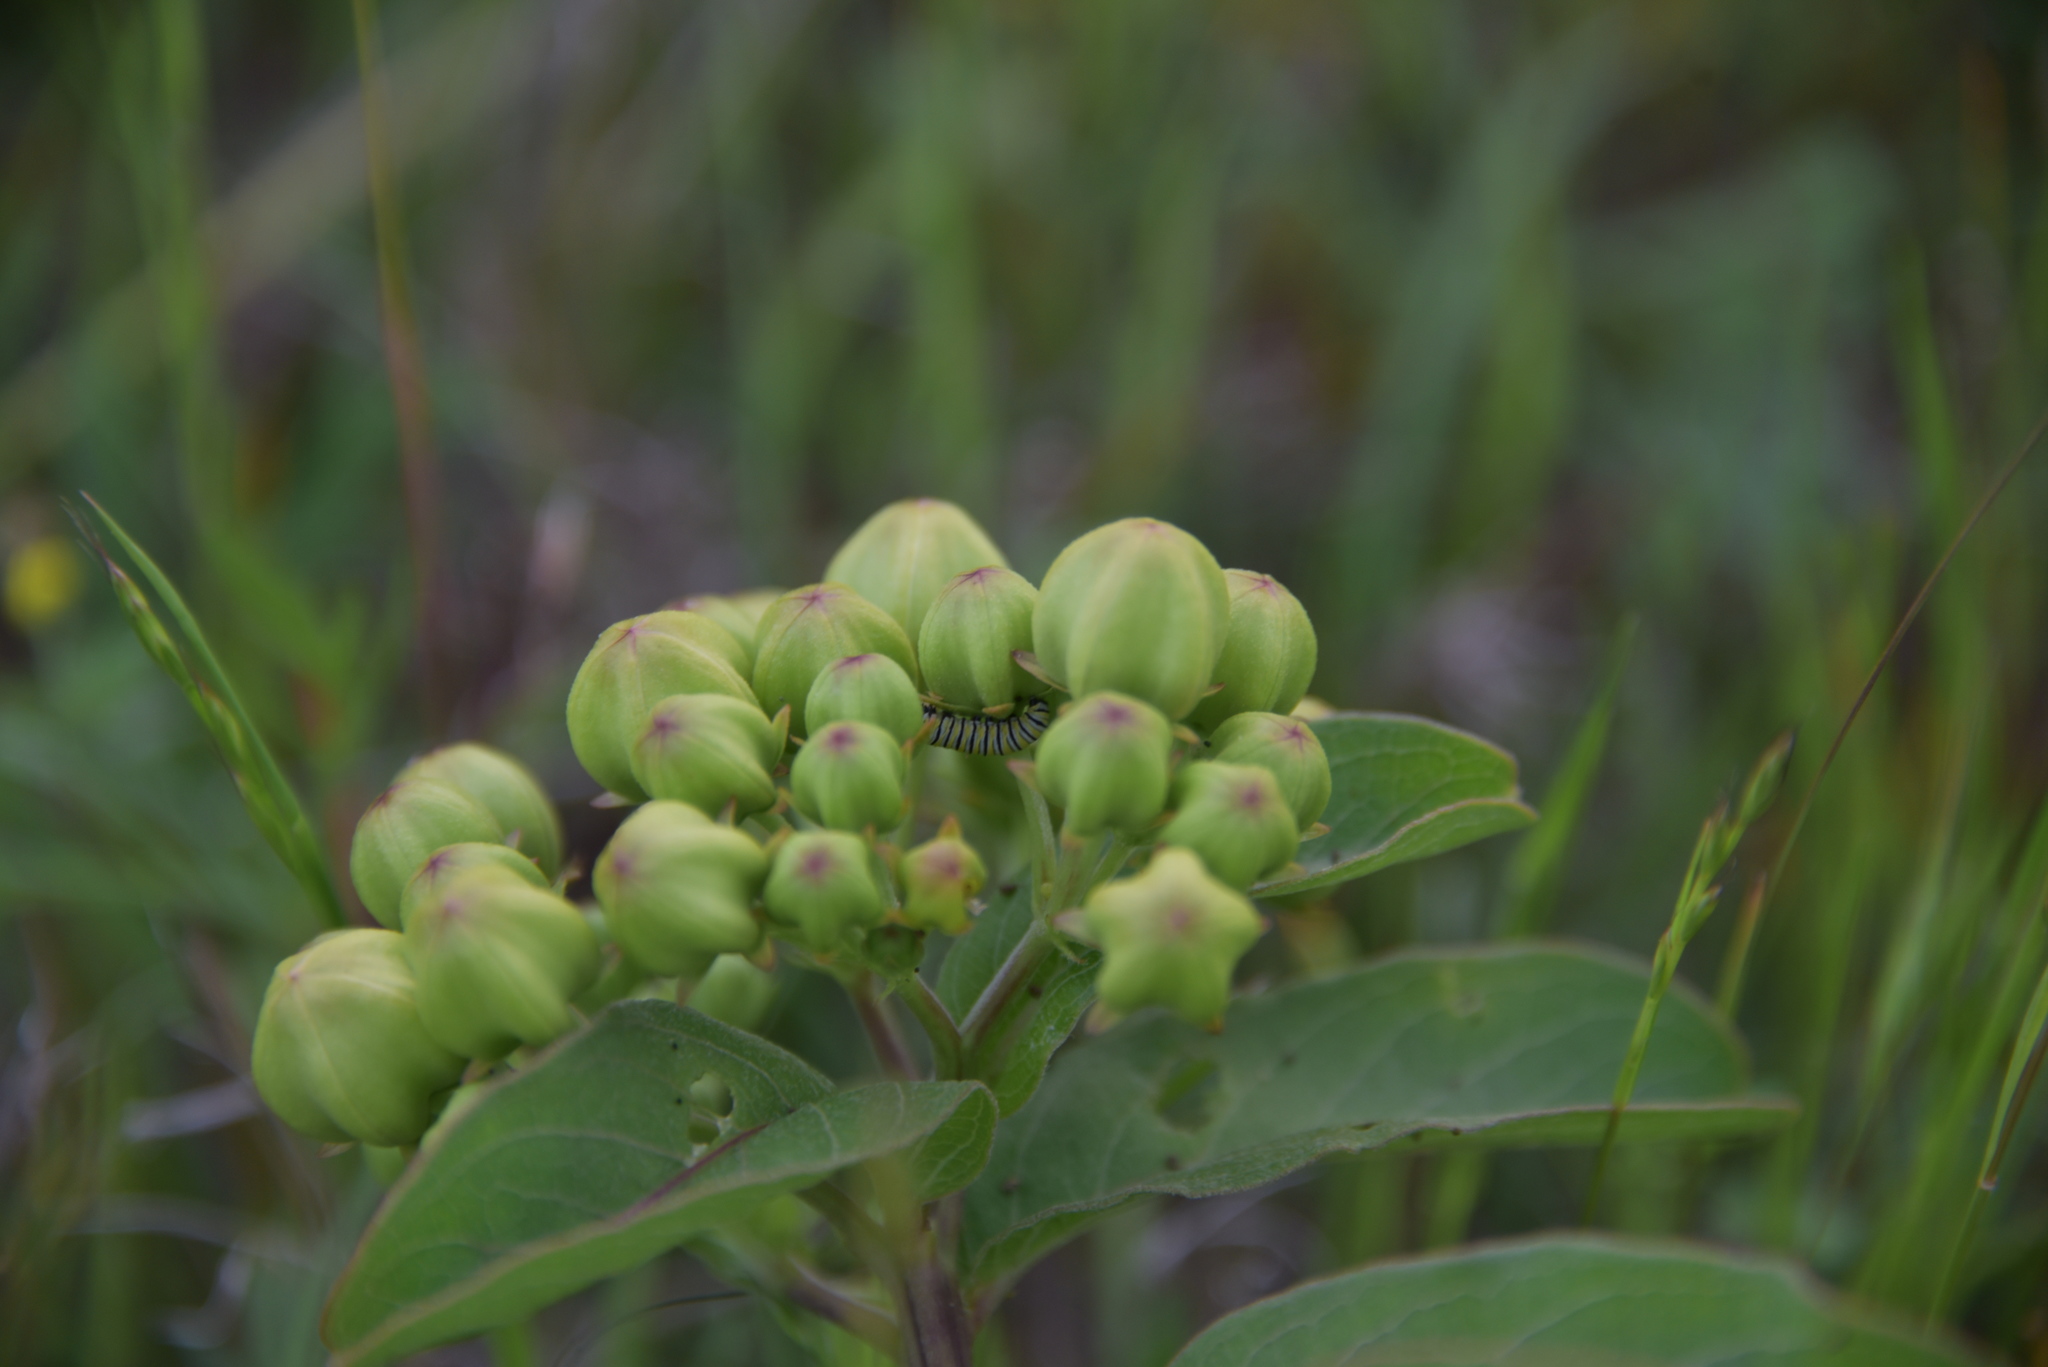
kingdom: Animalia
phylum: Arthropoda
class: Insecta
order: Lepidoptera
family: Nymphalidae
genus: Danaus
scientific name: Danaus plexippus
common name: Monarch
